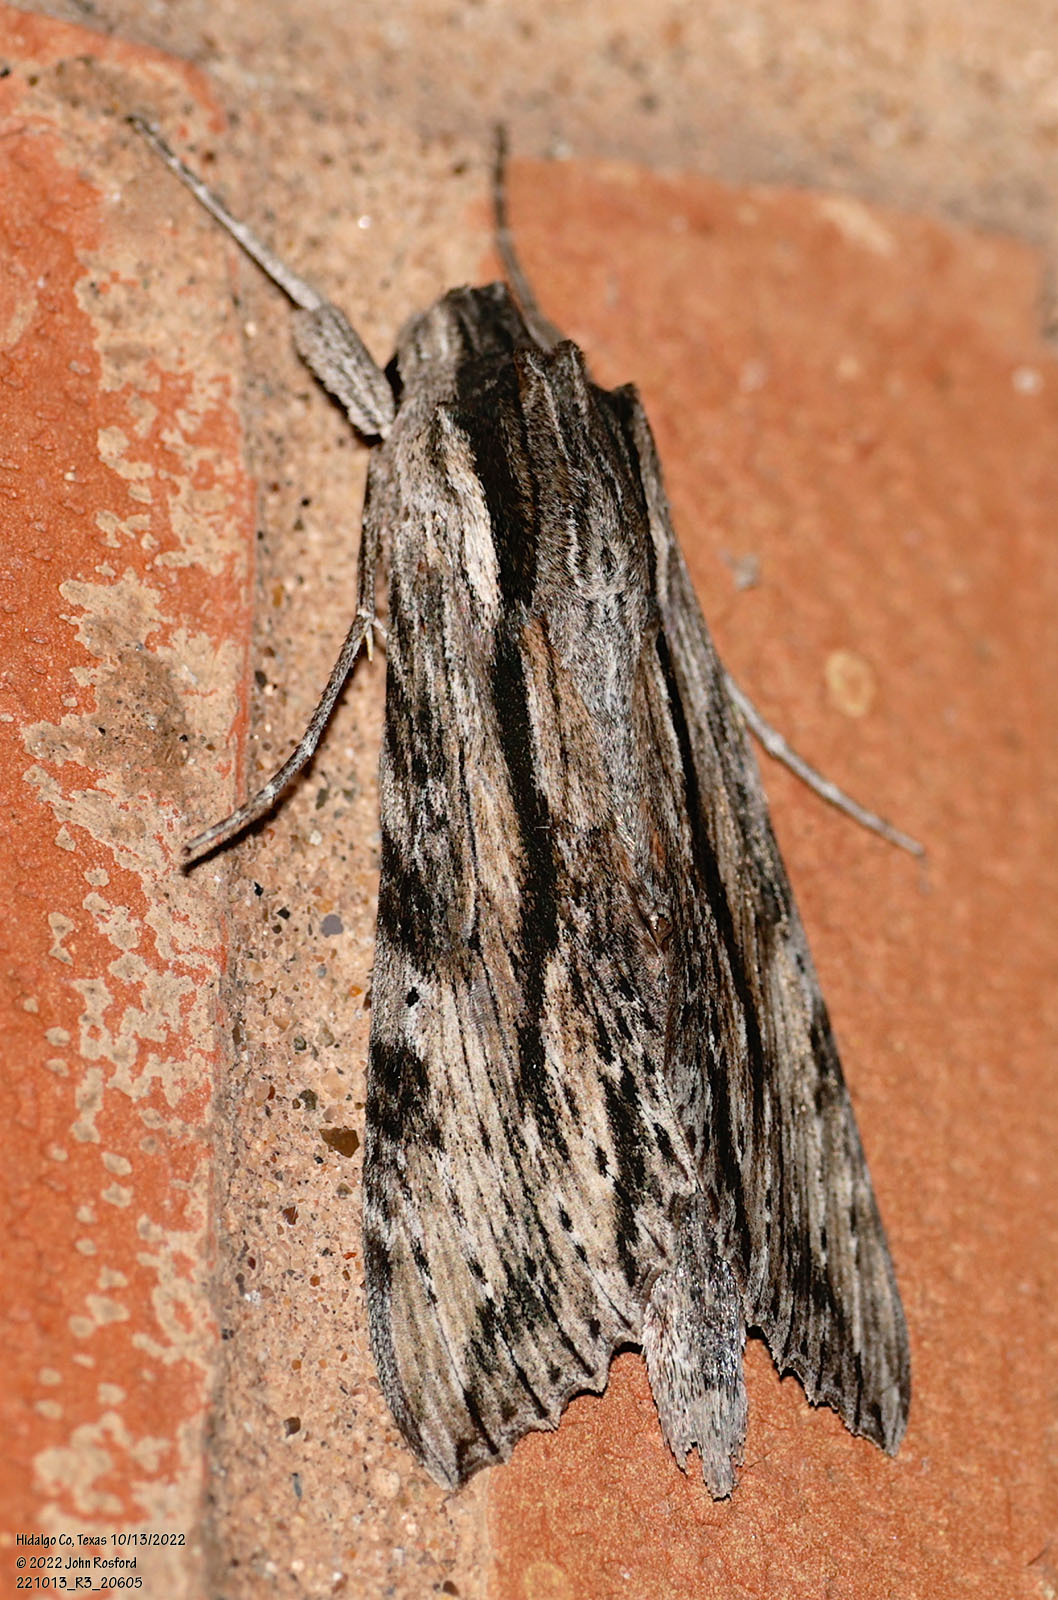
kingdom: Animalia
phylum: Arthropoda
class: Insecta
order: Lepidoptera
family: Sphingidae
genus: Erinnyis
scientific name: Erinnyis obscura
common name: Obscure sphinx
